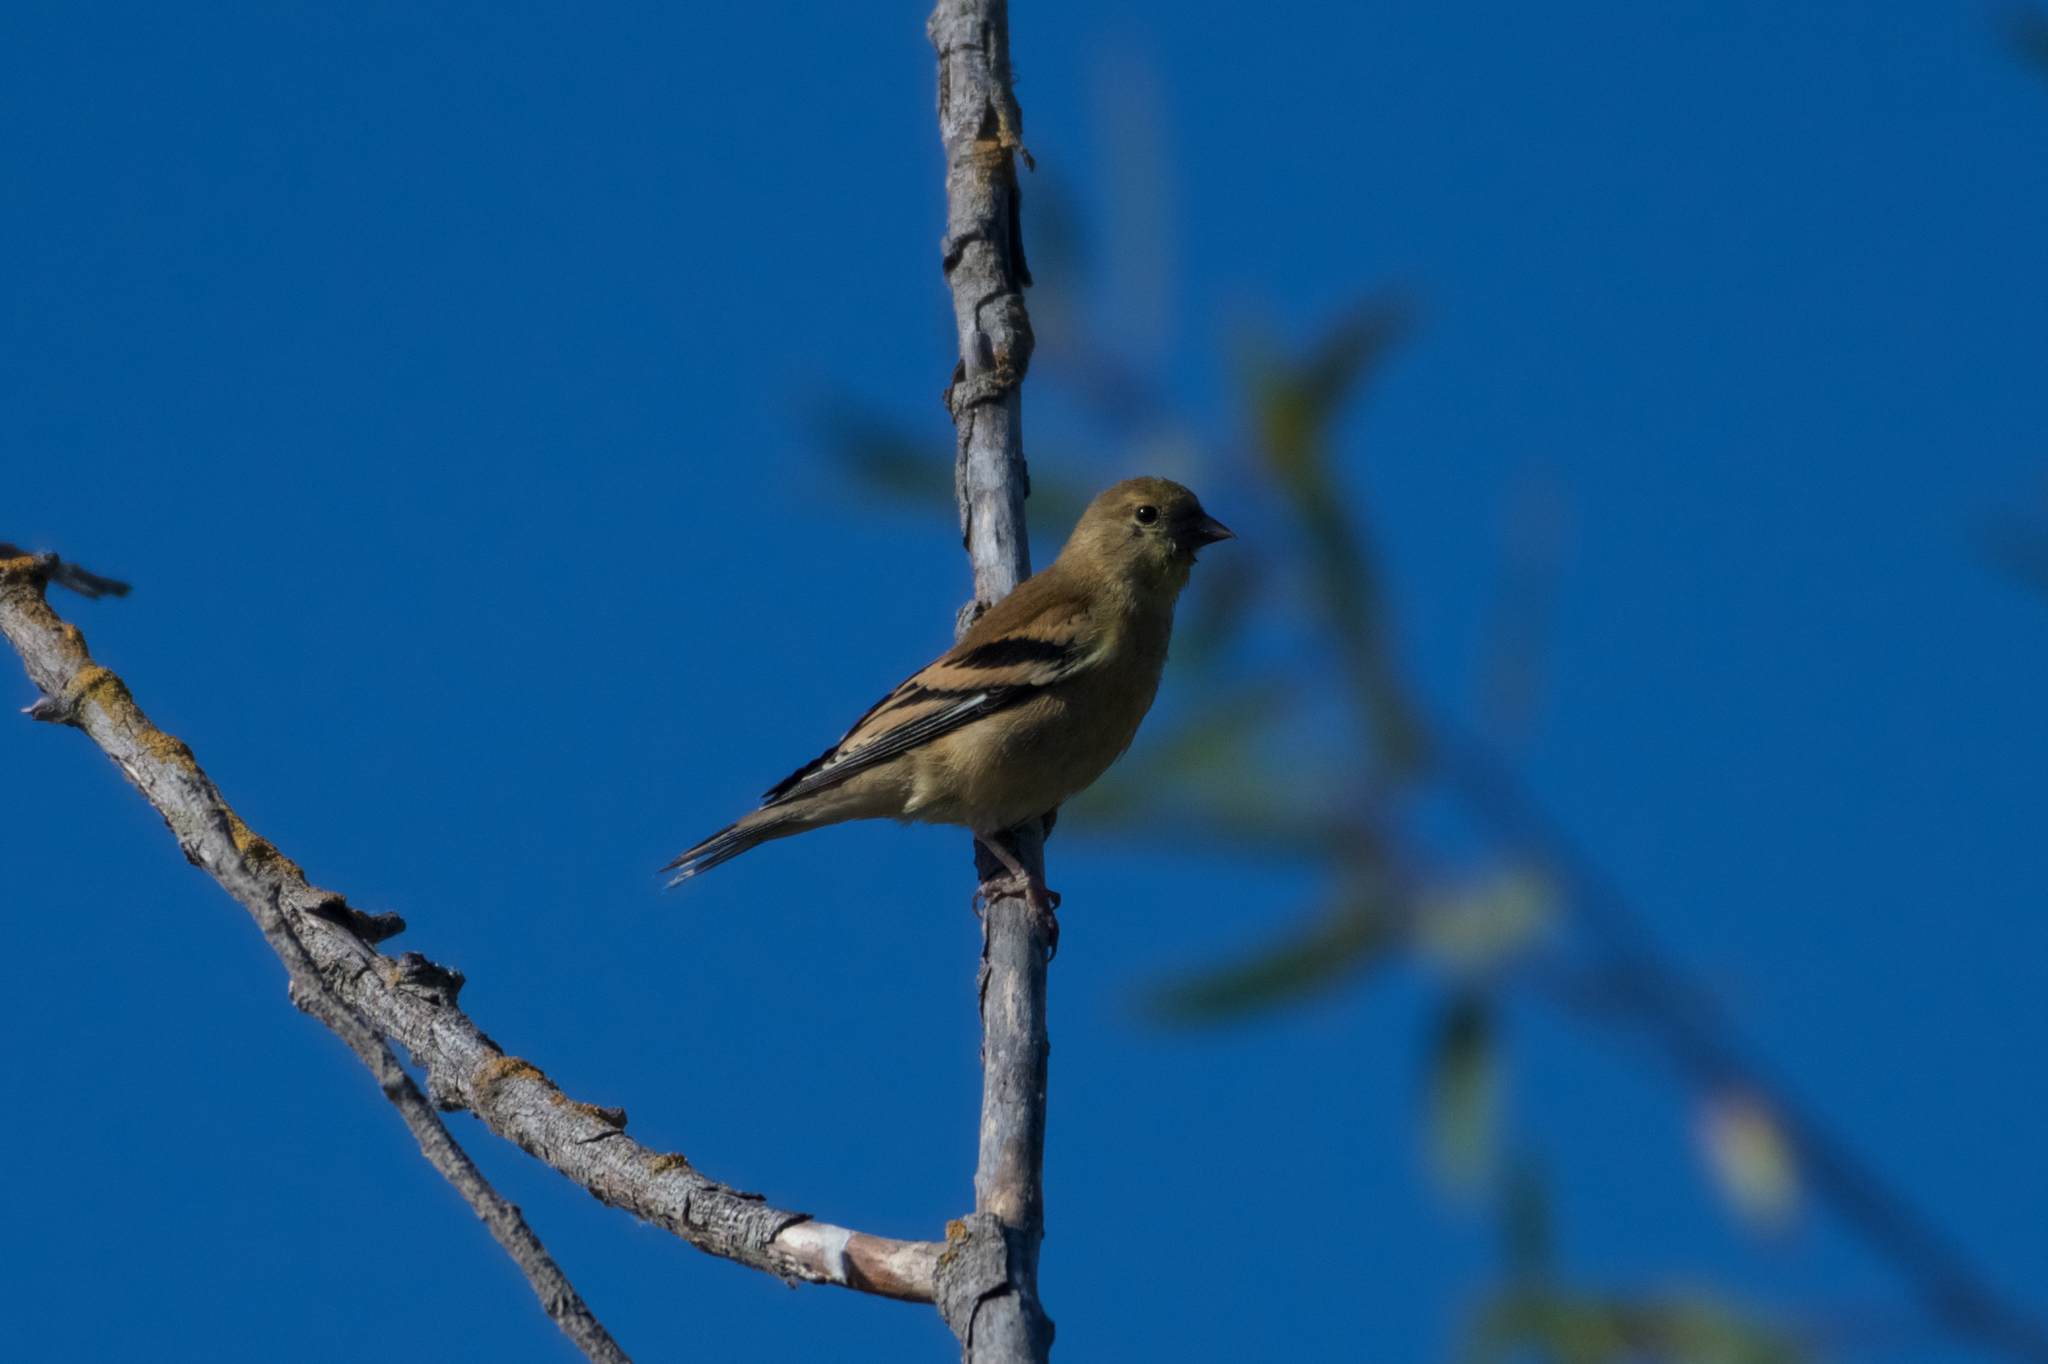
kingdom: Animalia
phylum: Chordata
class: Aves
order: Passeriformes
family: Fringillidae
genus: Spinus
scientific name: Spinus tristis
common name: American goldfinch
